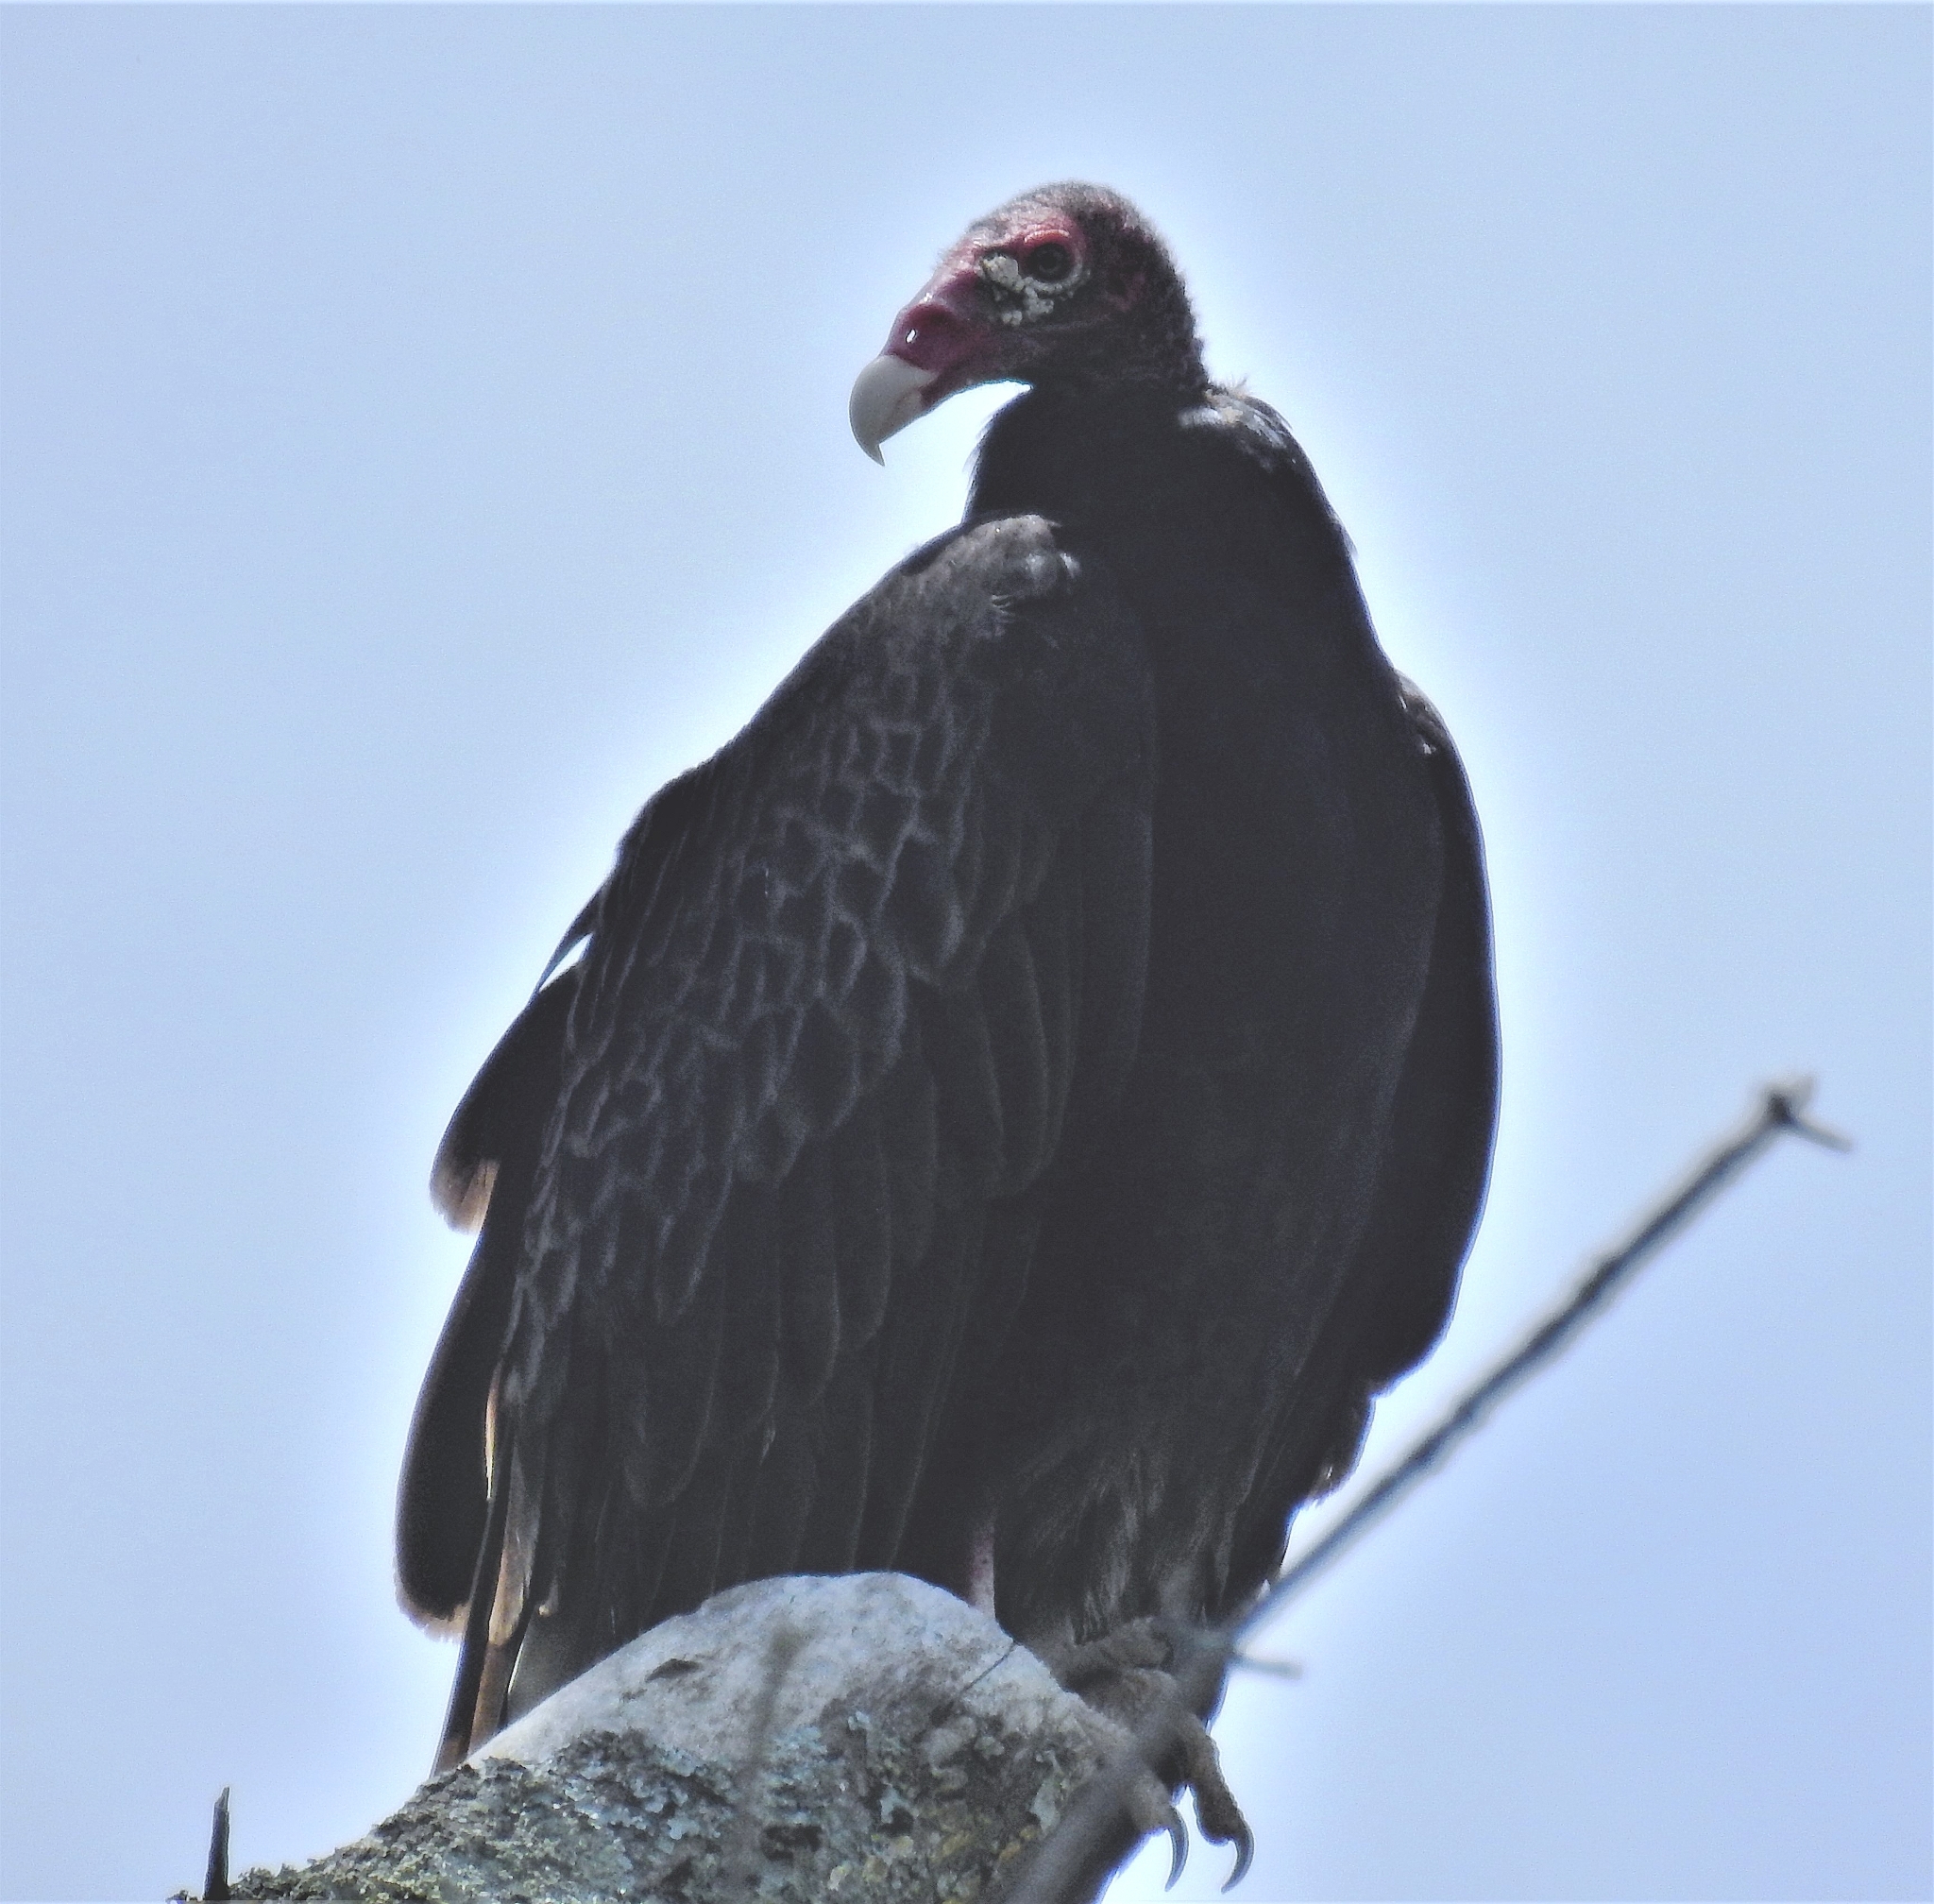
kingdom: Animalia
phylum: Chordata
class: Aves
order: Accipitriformes
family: Cathartidae
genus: Cathartes
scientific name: Cathartes aura
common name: Turkey vulture
